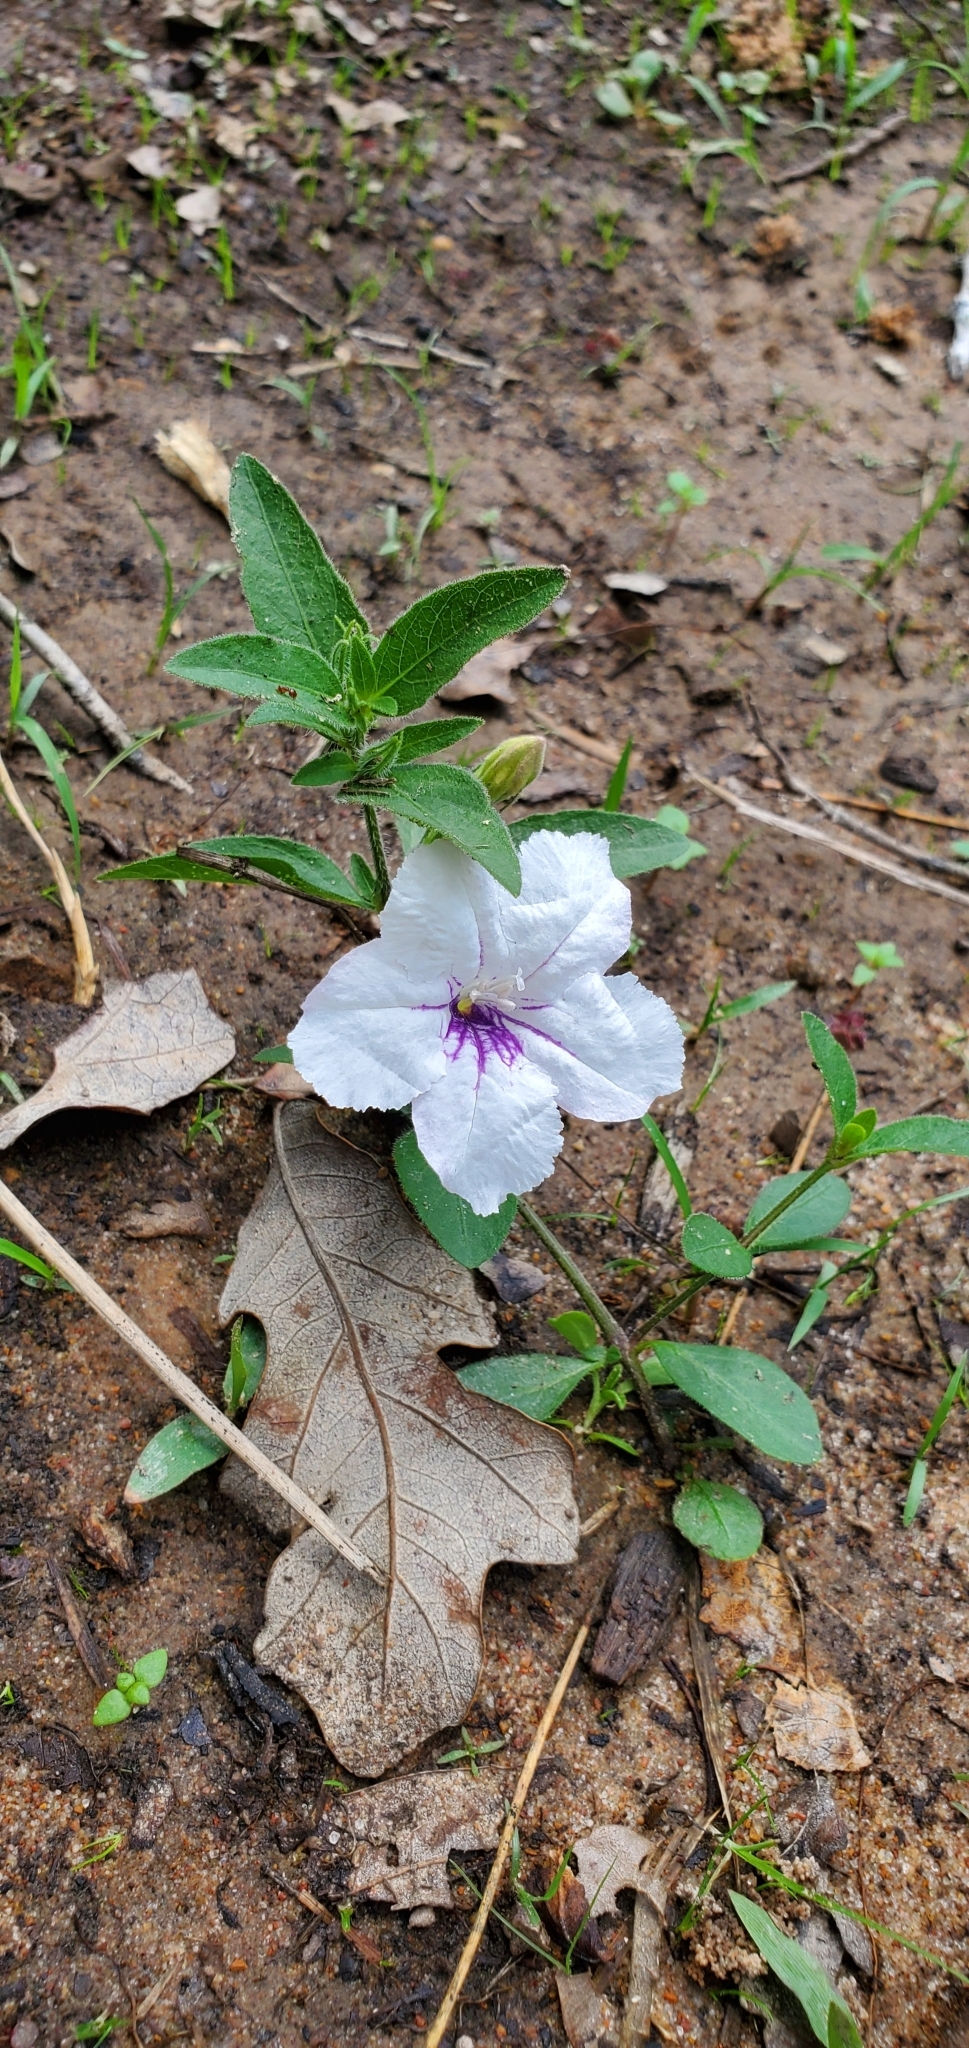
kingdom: Plantae
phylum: Tracheophyta
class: Magnoliopsida
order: Lamiales
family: Acanthaceae
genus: Ruellia
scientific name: Ruellia humilis
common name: Fringe-leaf ruellia
